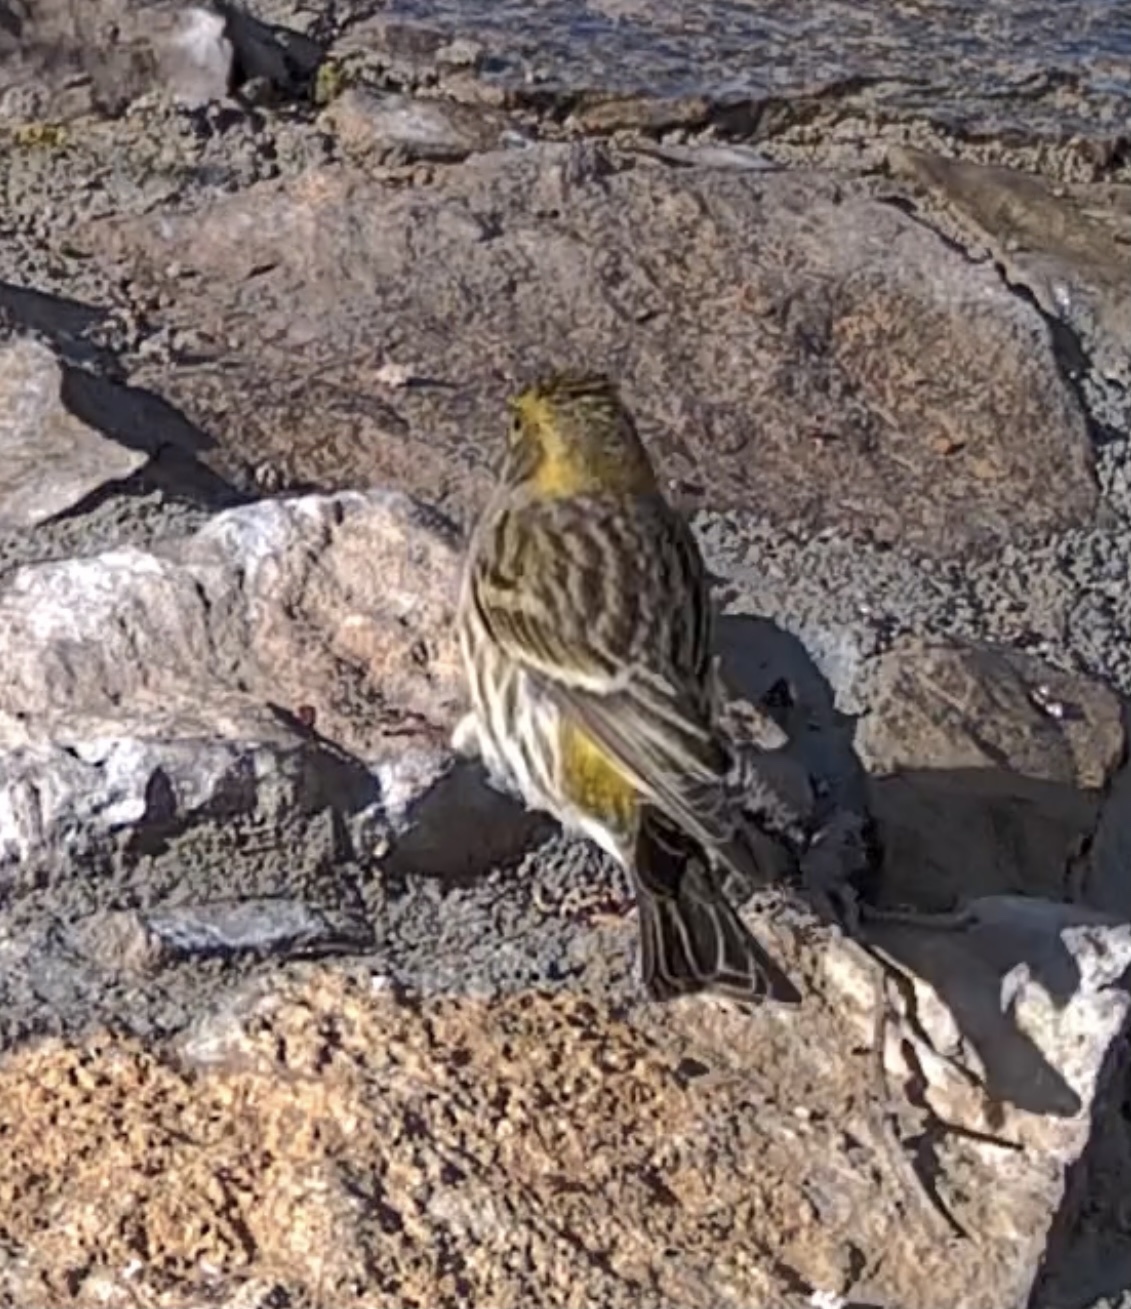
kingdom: Animalia
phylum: Chordata
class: Aves
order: Passeriformes
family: Fringillidae
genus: Serinus
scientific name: Serinus serinus
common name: European serin
